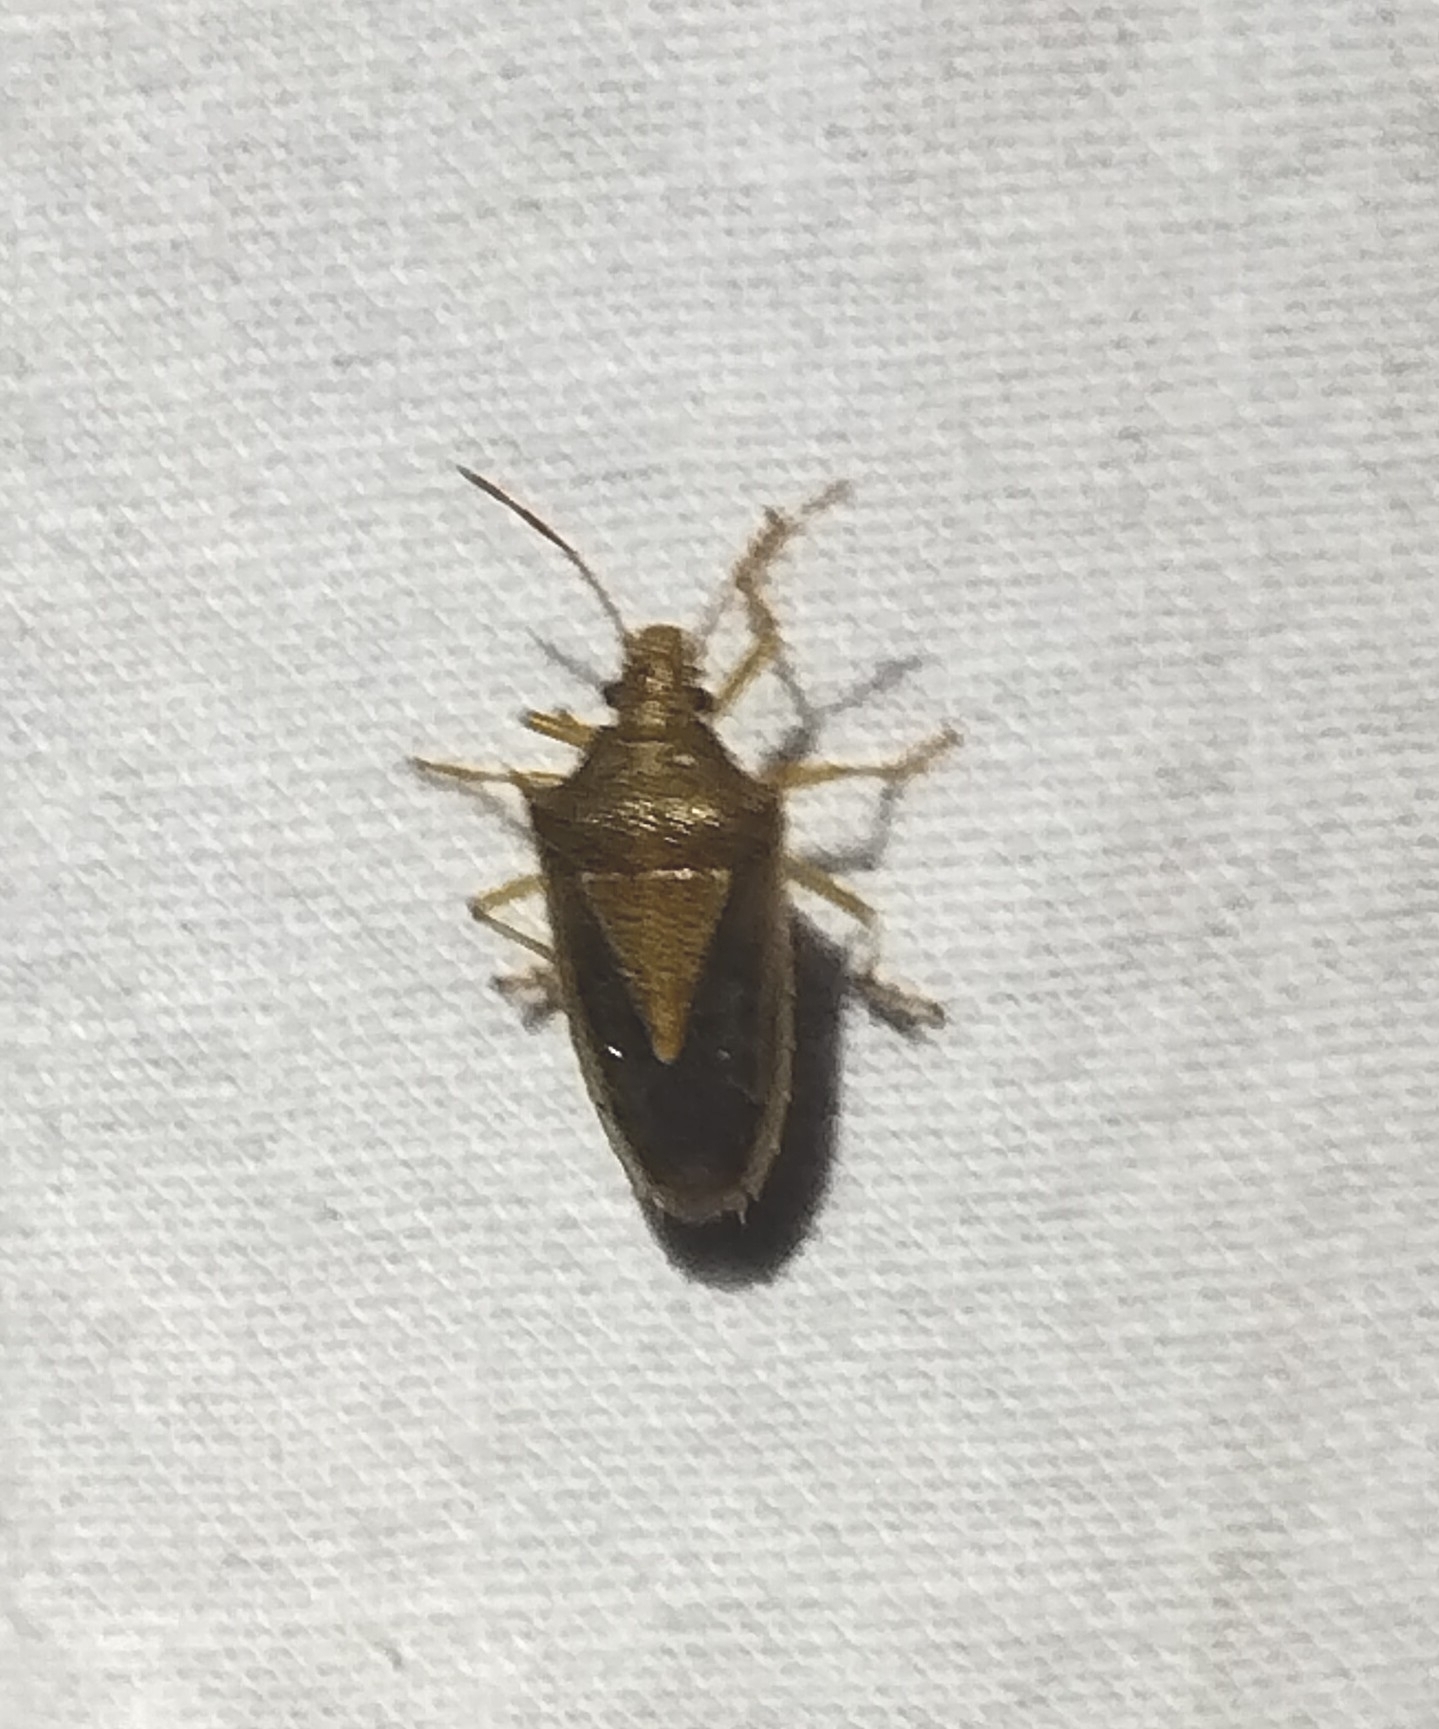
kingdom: Animalia
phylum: Arthropoda
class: Insecta
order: Hemiptera
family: Pentatomidae
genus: Oebalus
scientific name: Oebalus pugnax
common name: Rice stink bug
